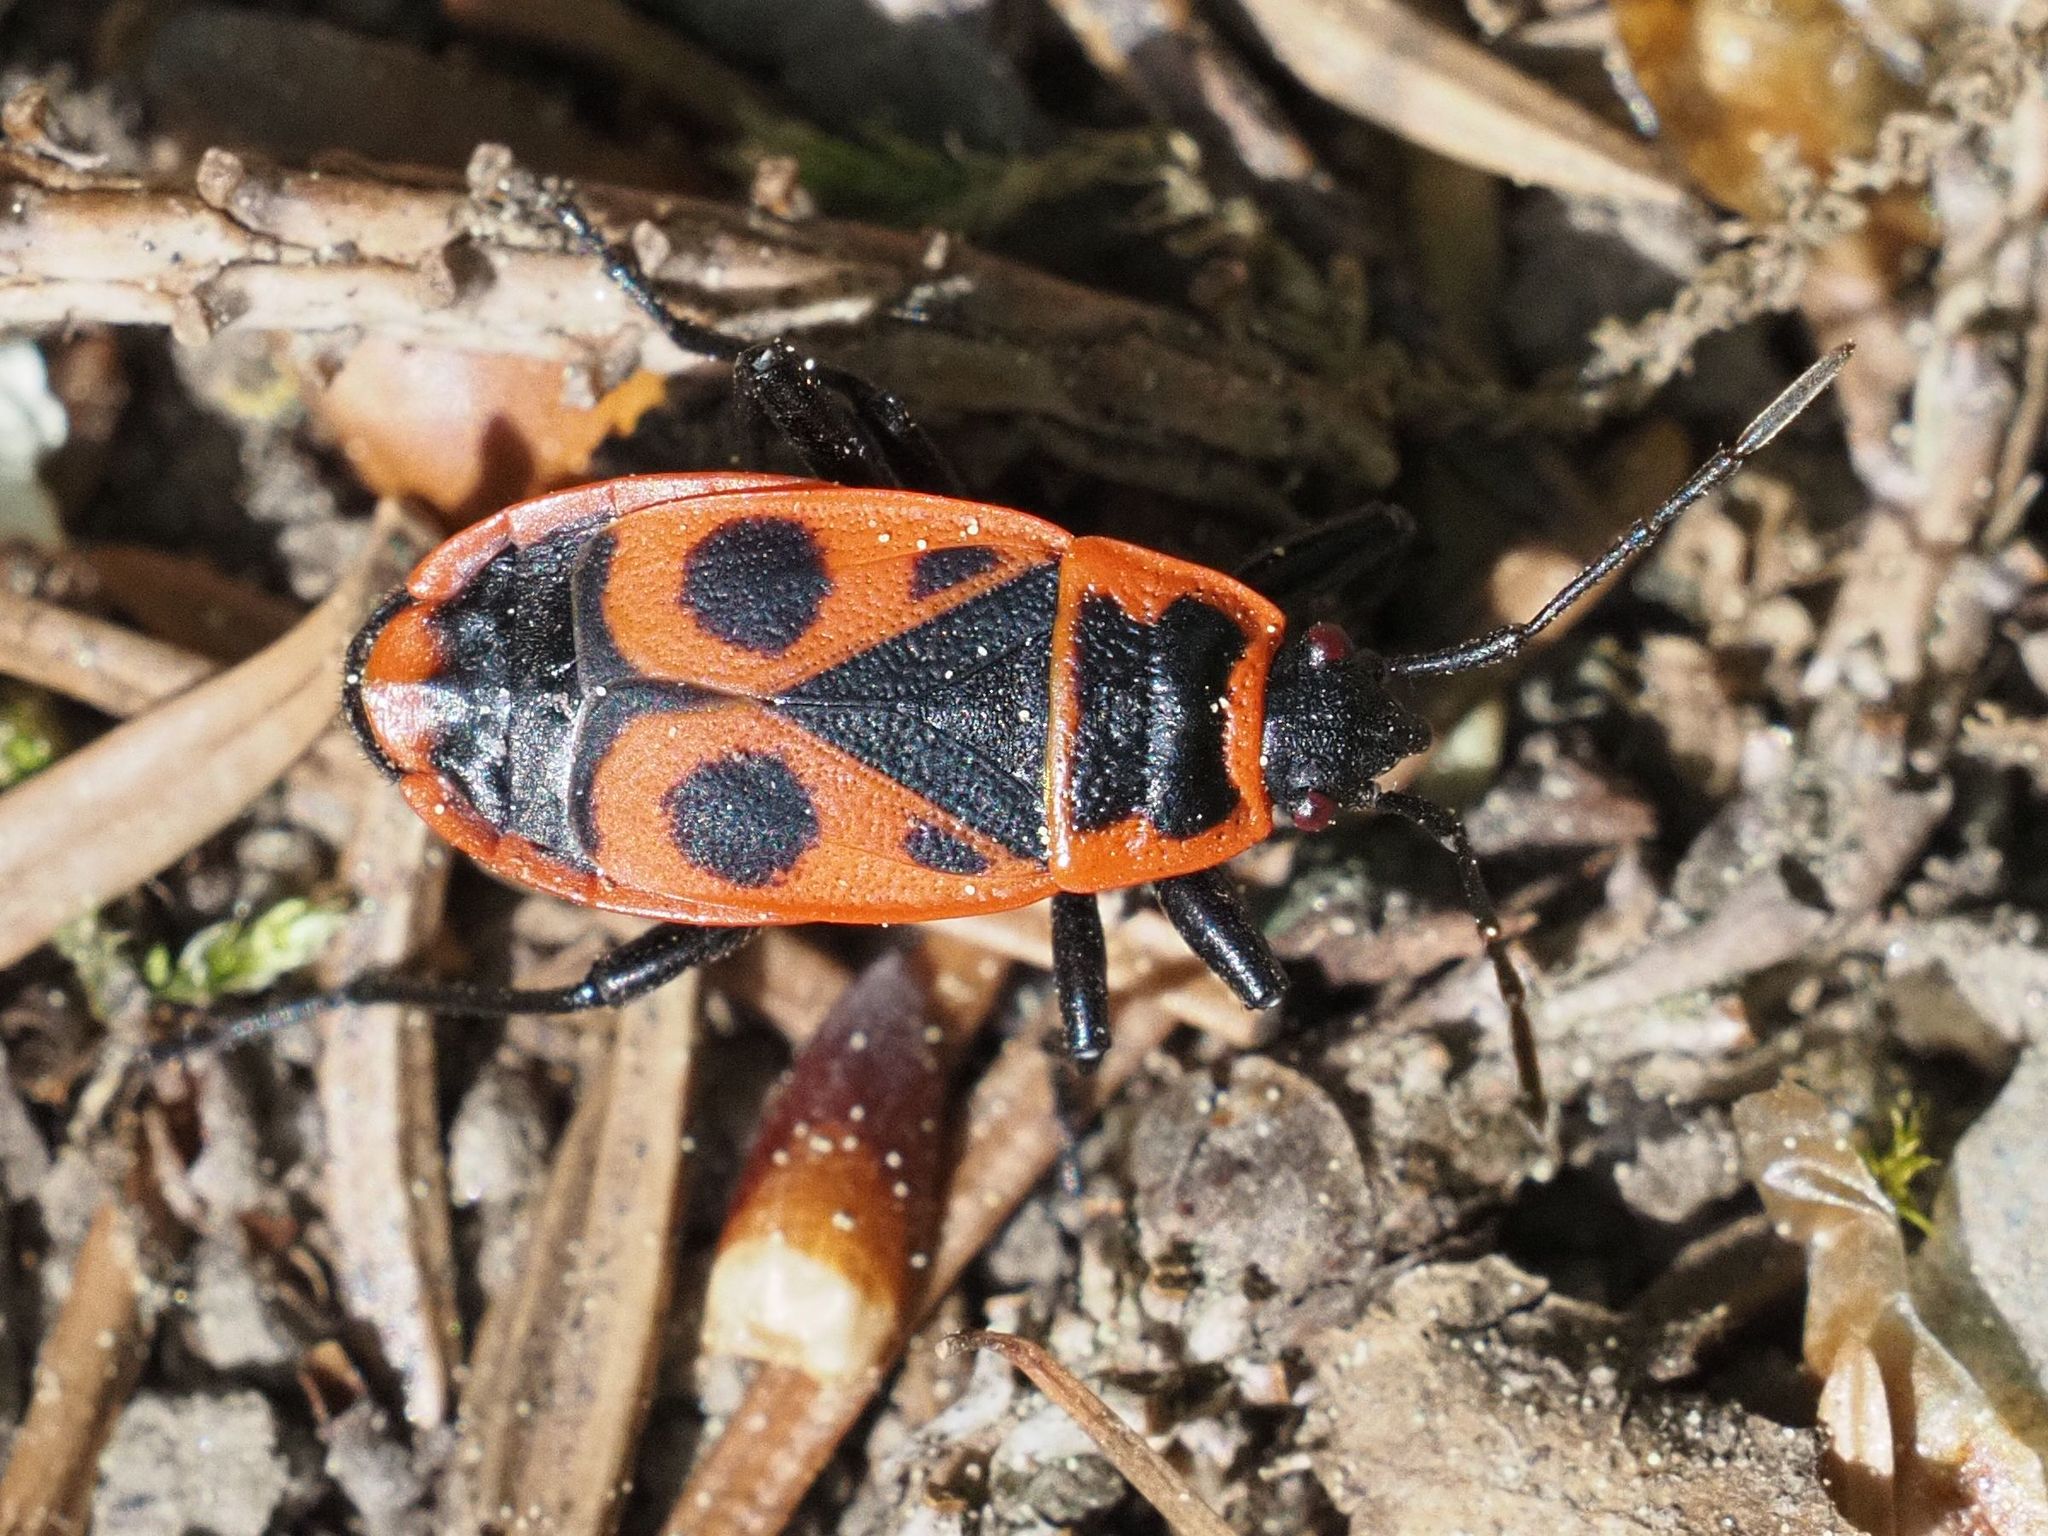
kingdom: Animalia
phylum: Arthropoda
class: Insecta
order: Hemiptera
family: Pyrrhocoridae
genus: Pyrrhocoris
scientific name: Pyrrhocoris apterus
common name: Firebug
